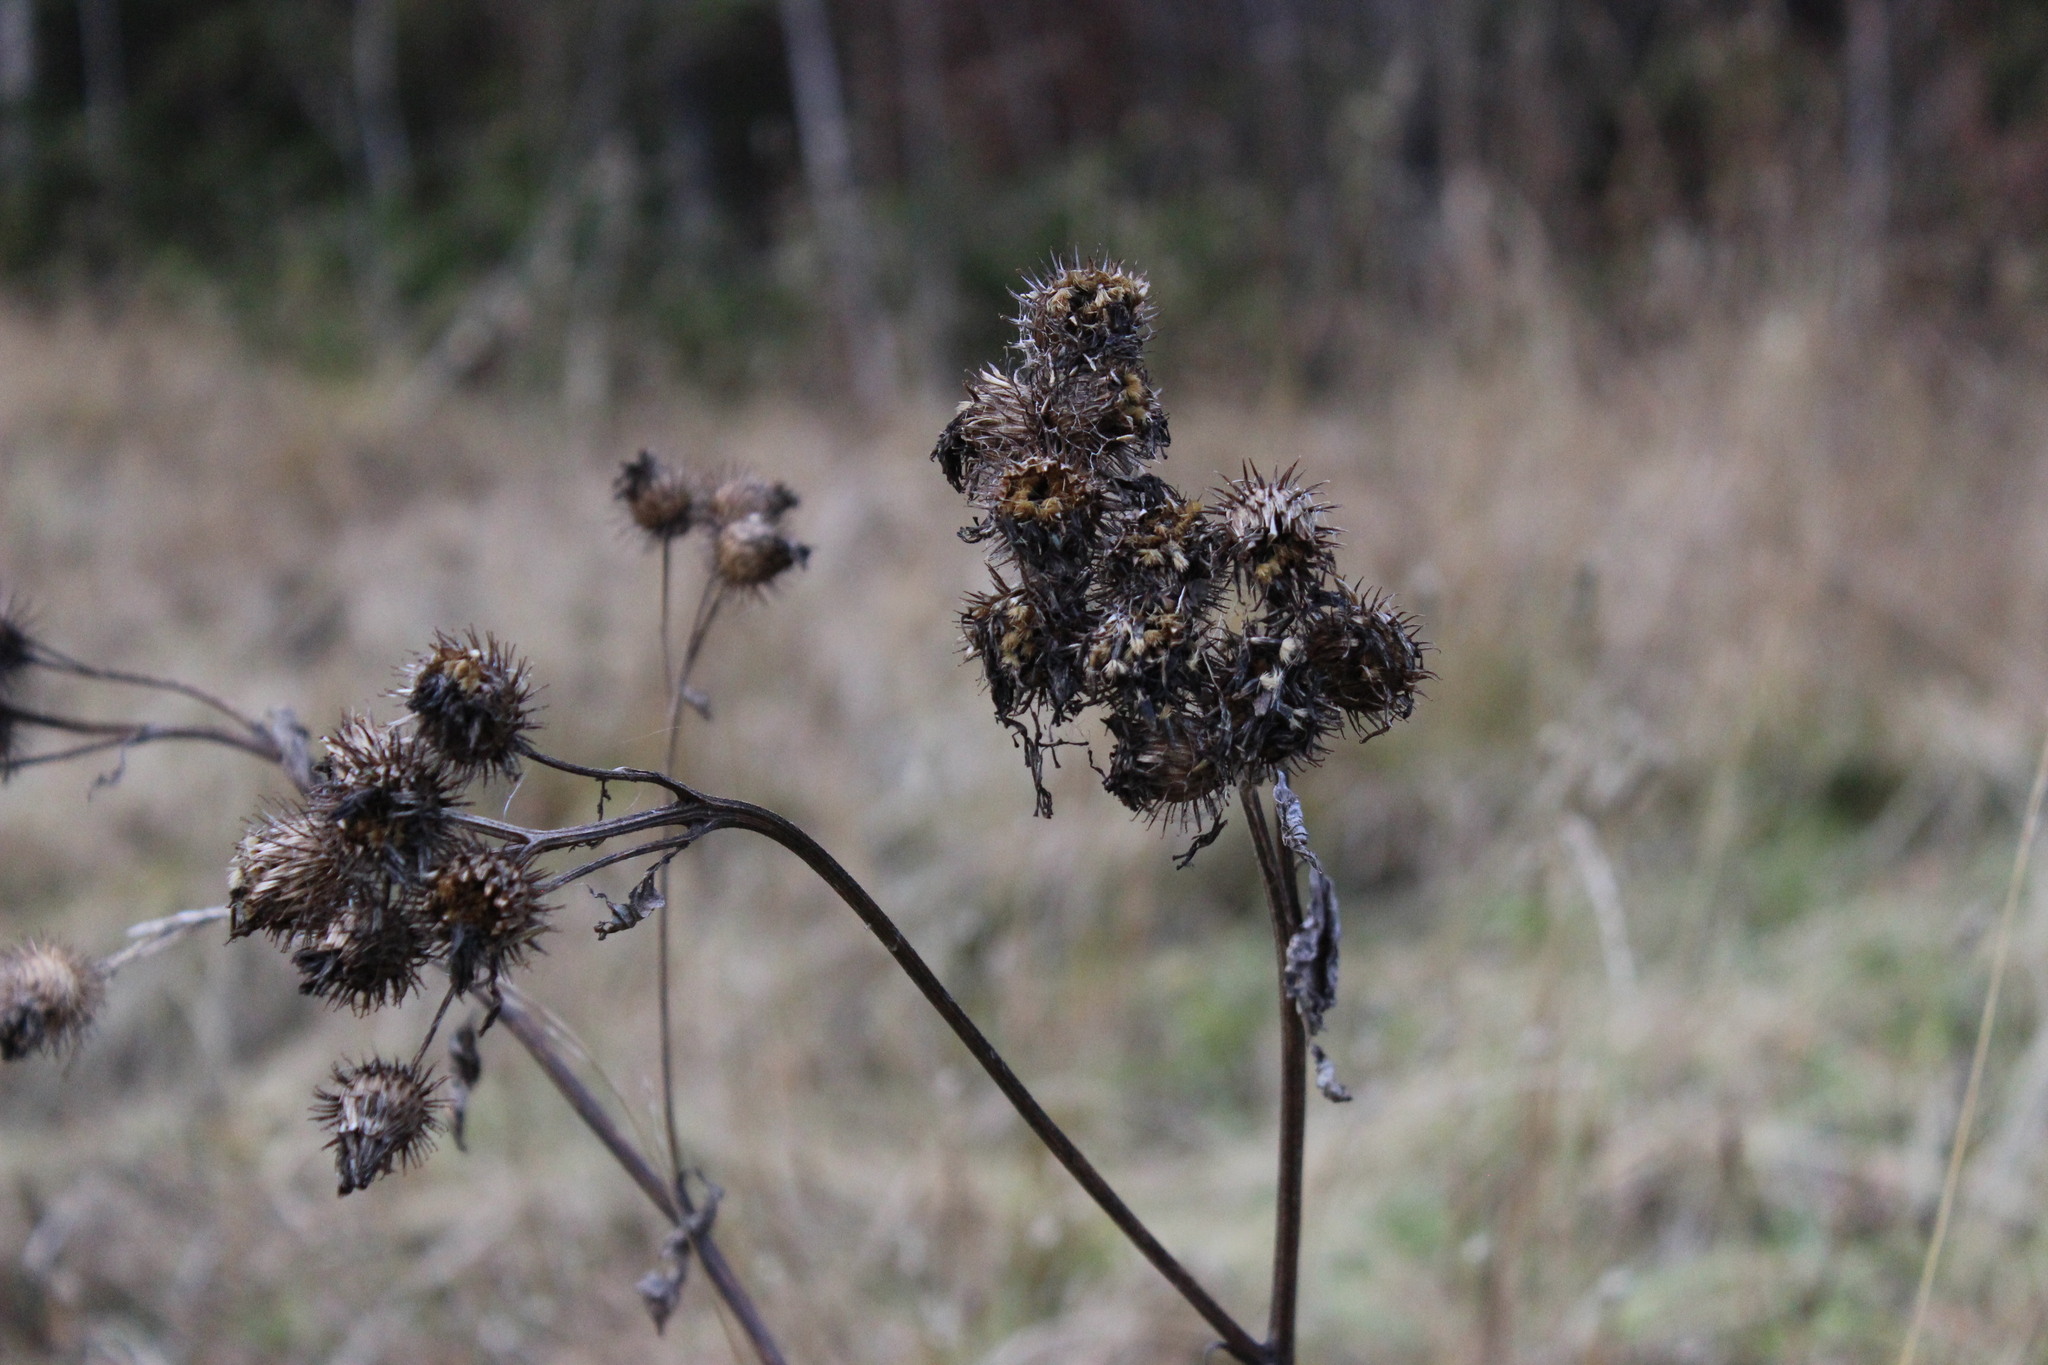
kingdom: Plantae
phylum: Tracheophyta
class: Magnoliopsida
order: Asterales
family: Asteraceae
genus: Arctium
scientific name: Arctium tomentosum
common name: Woolly burdock
